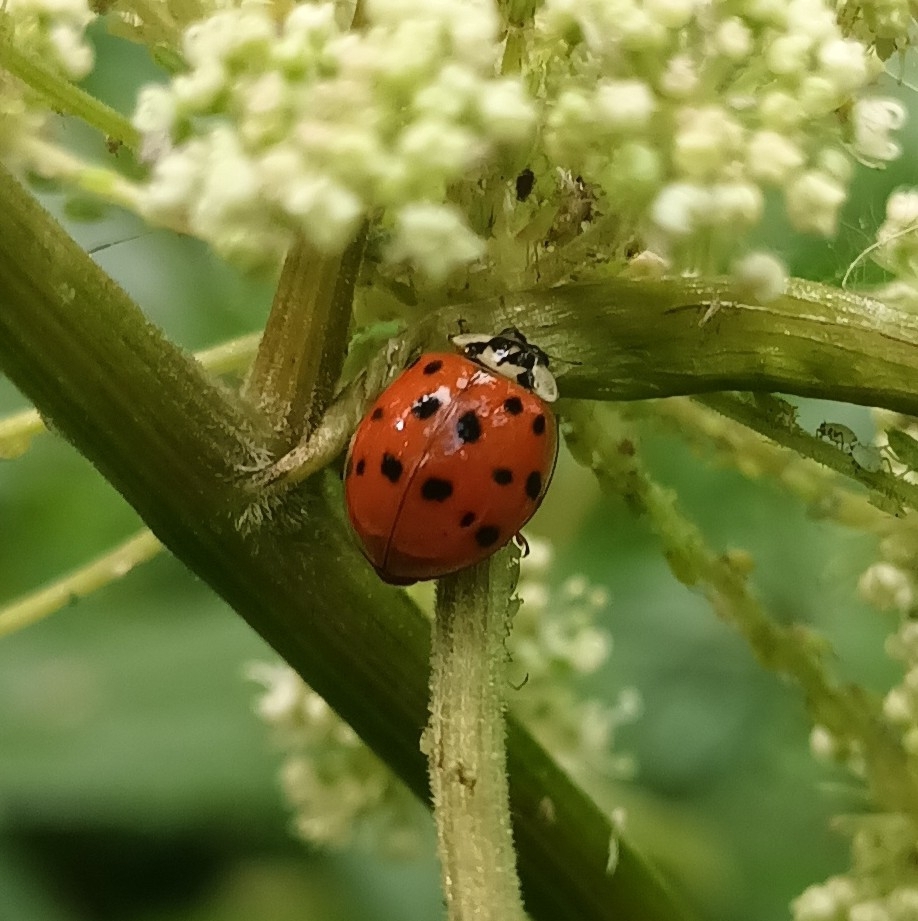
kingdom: Animalia
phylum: Arthropoda
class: Insecta
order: Coleoptera
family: Coccinellidae
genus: Harmonia
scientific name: Harmonia axyridis
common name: Harlequin ladybird
